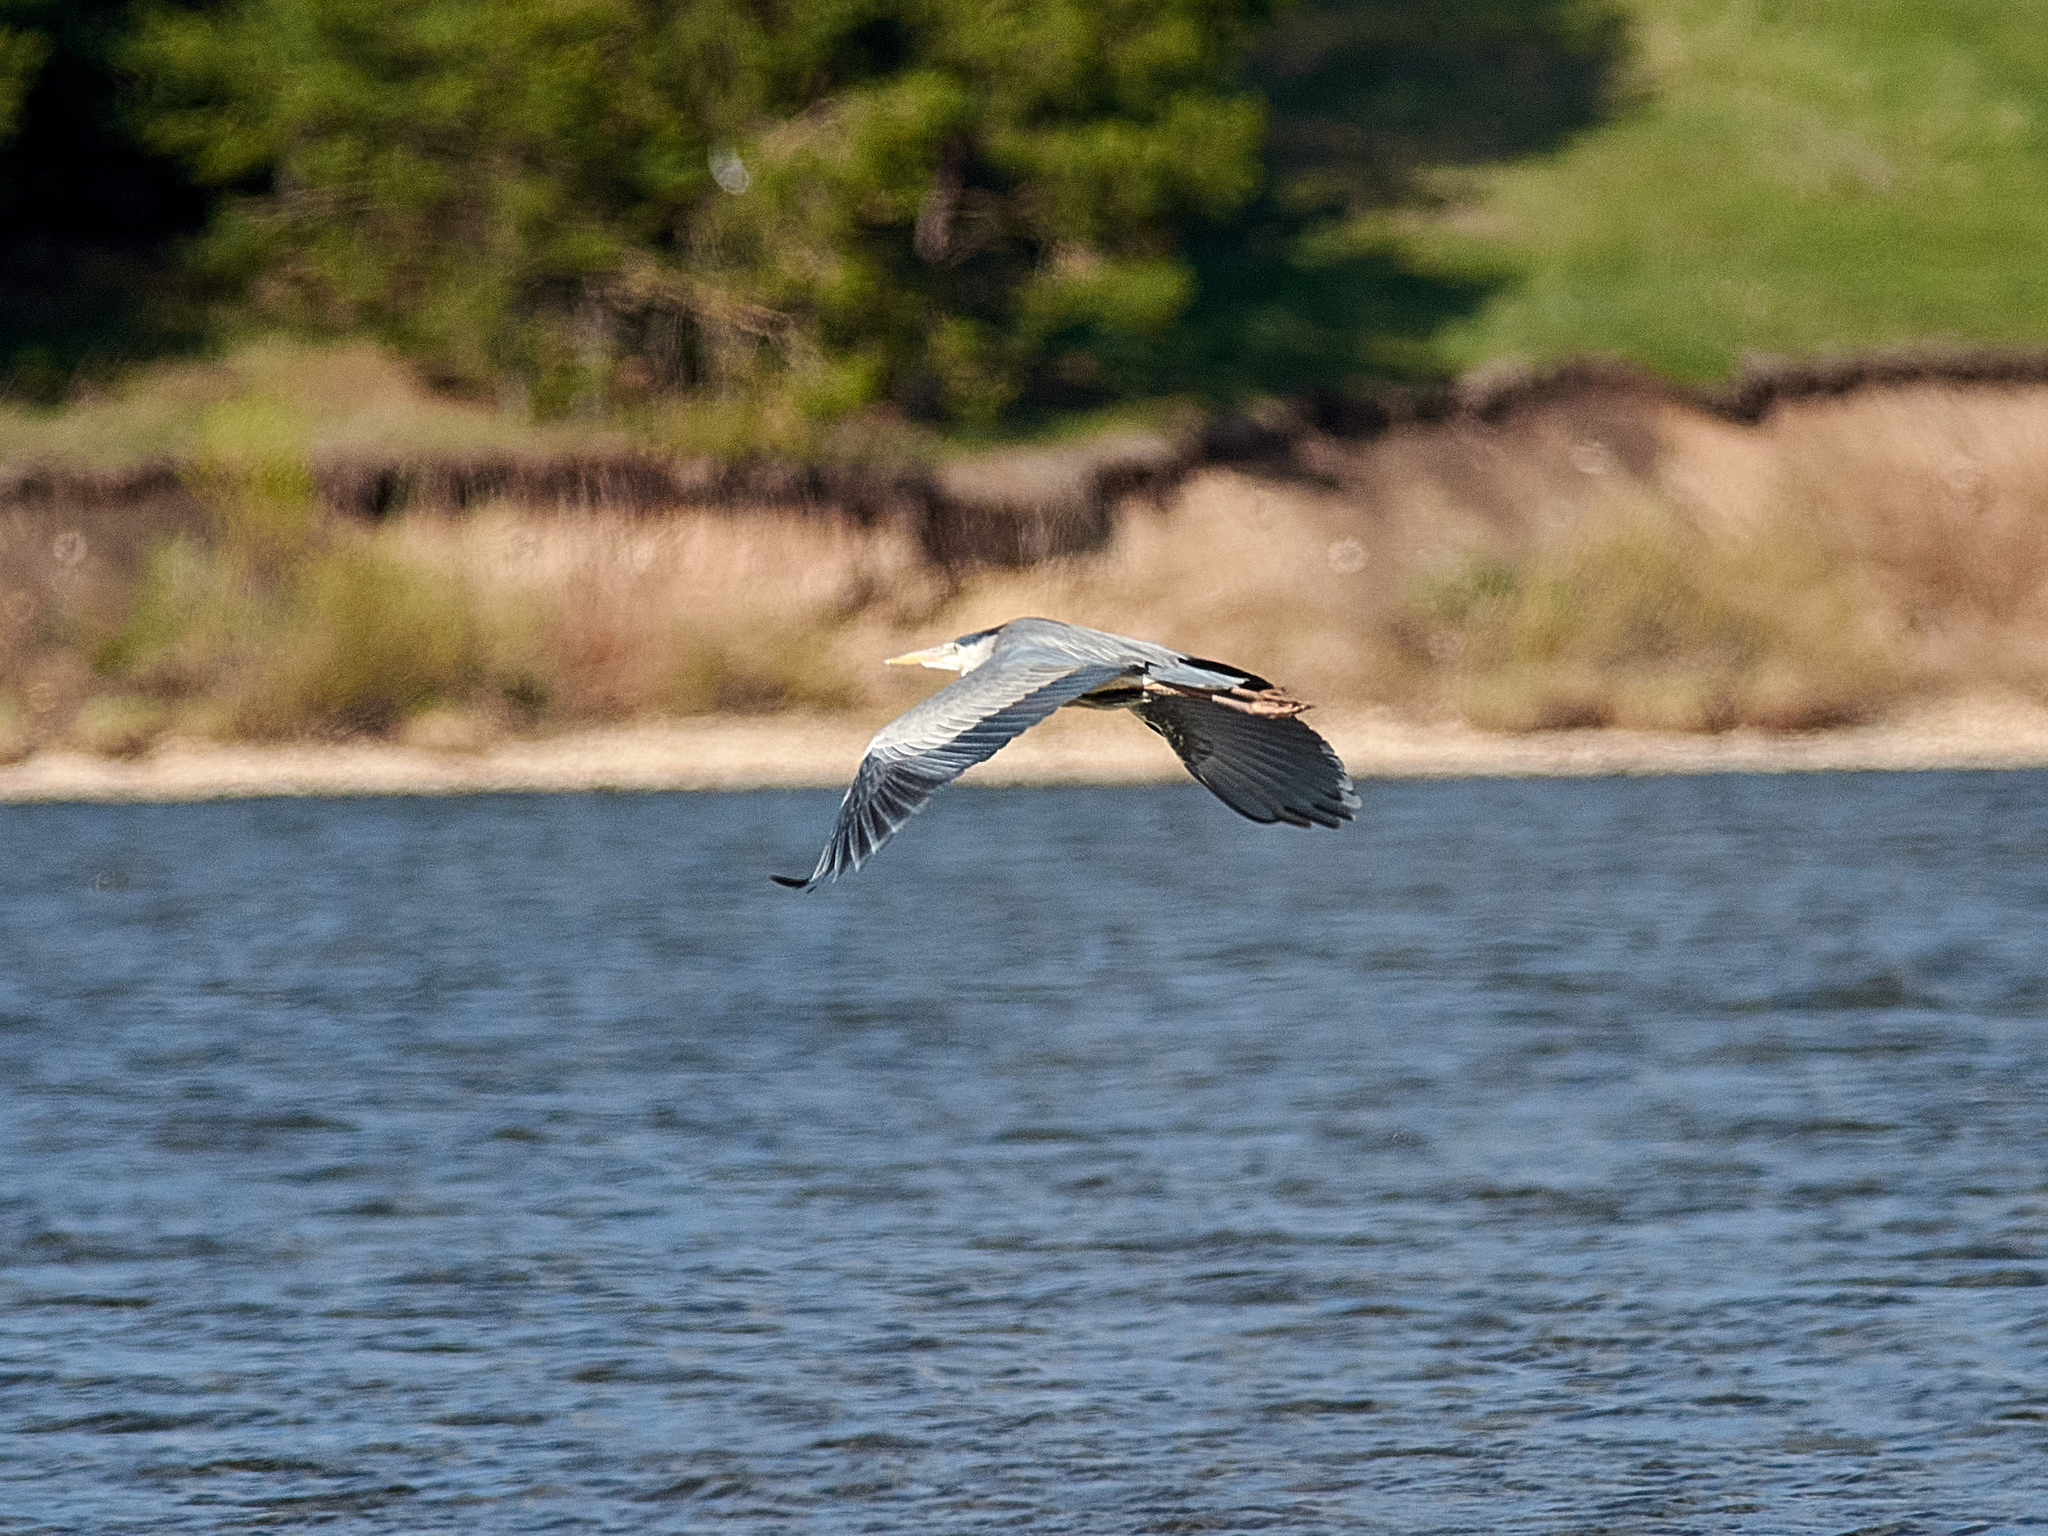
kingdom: Animalia
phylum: Chordata
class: Aves
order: Pelecaniformes
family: Ardeidae
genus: Ardea
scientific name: Ardea cinerea
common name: Grey heron
